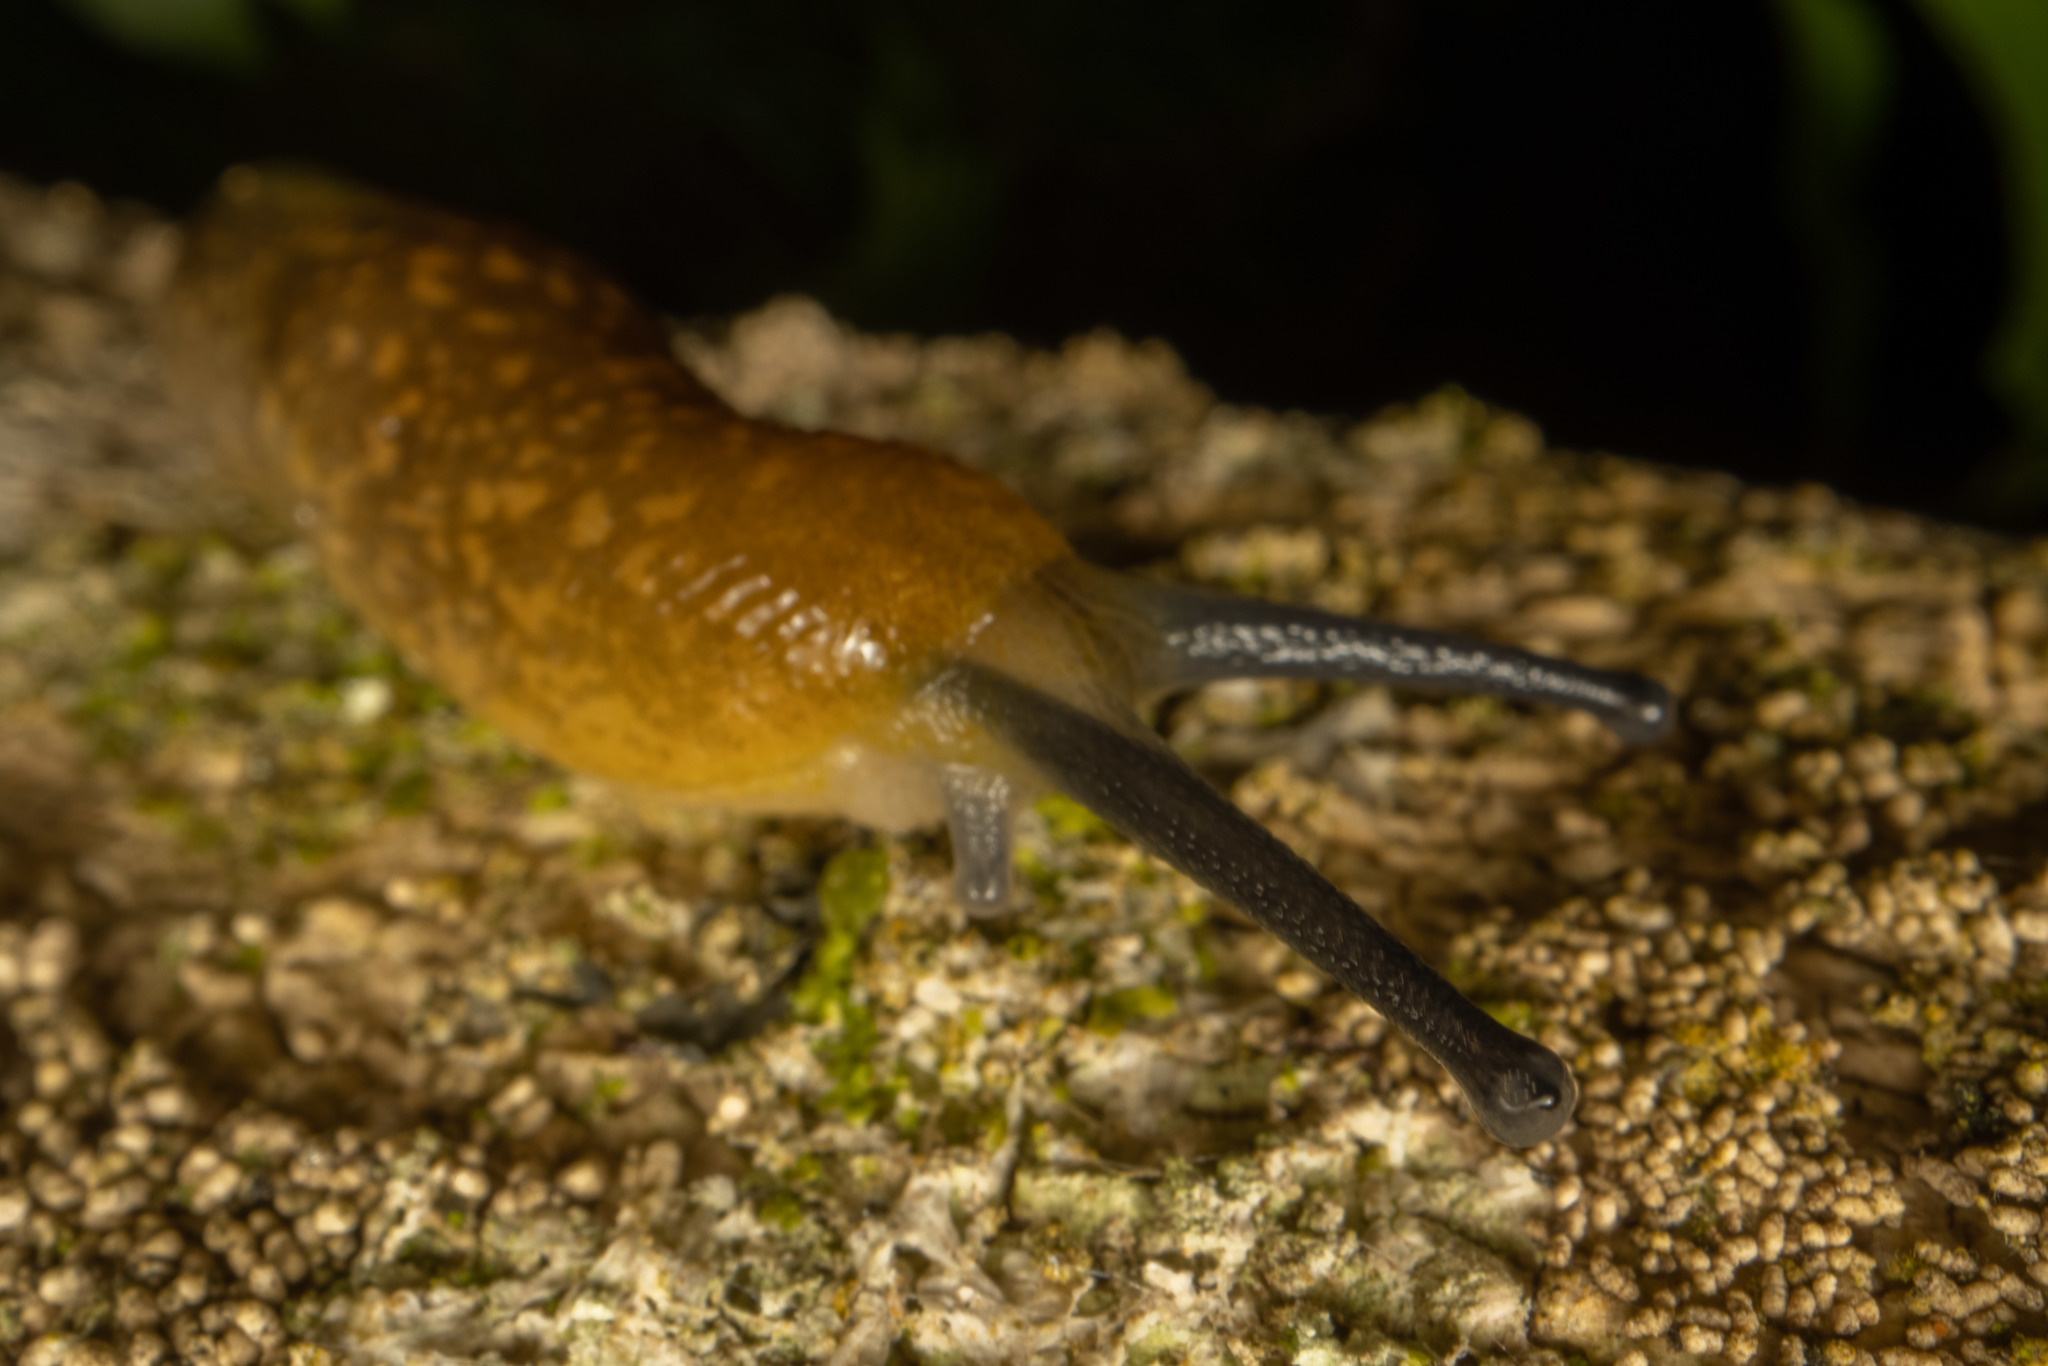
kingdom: Animalia
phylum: Mollusca
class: Gastropoda
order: Stylommatophora
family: Limacidae
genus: Limacus
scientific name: Limacus flavus
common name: Yellow gardenslug
